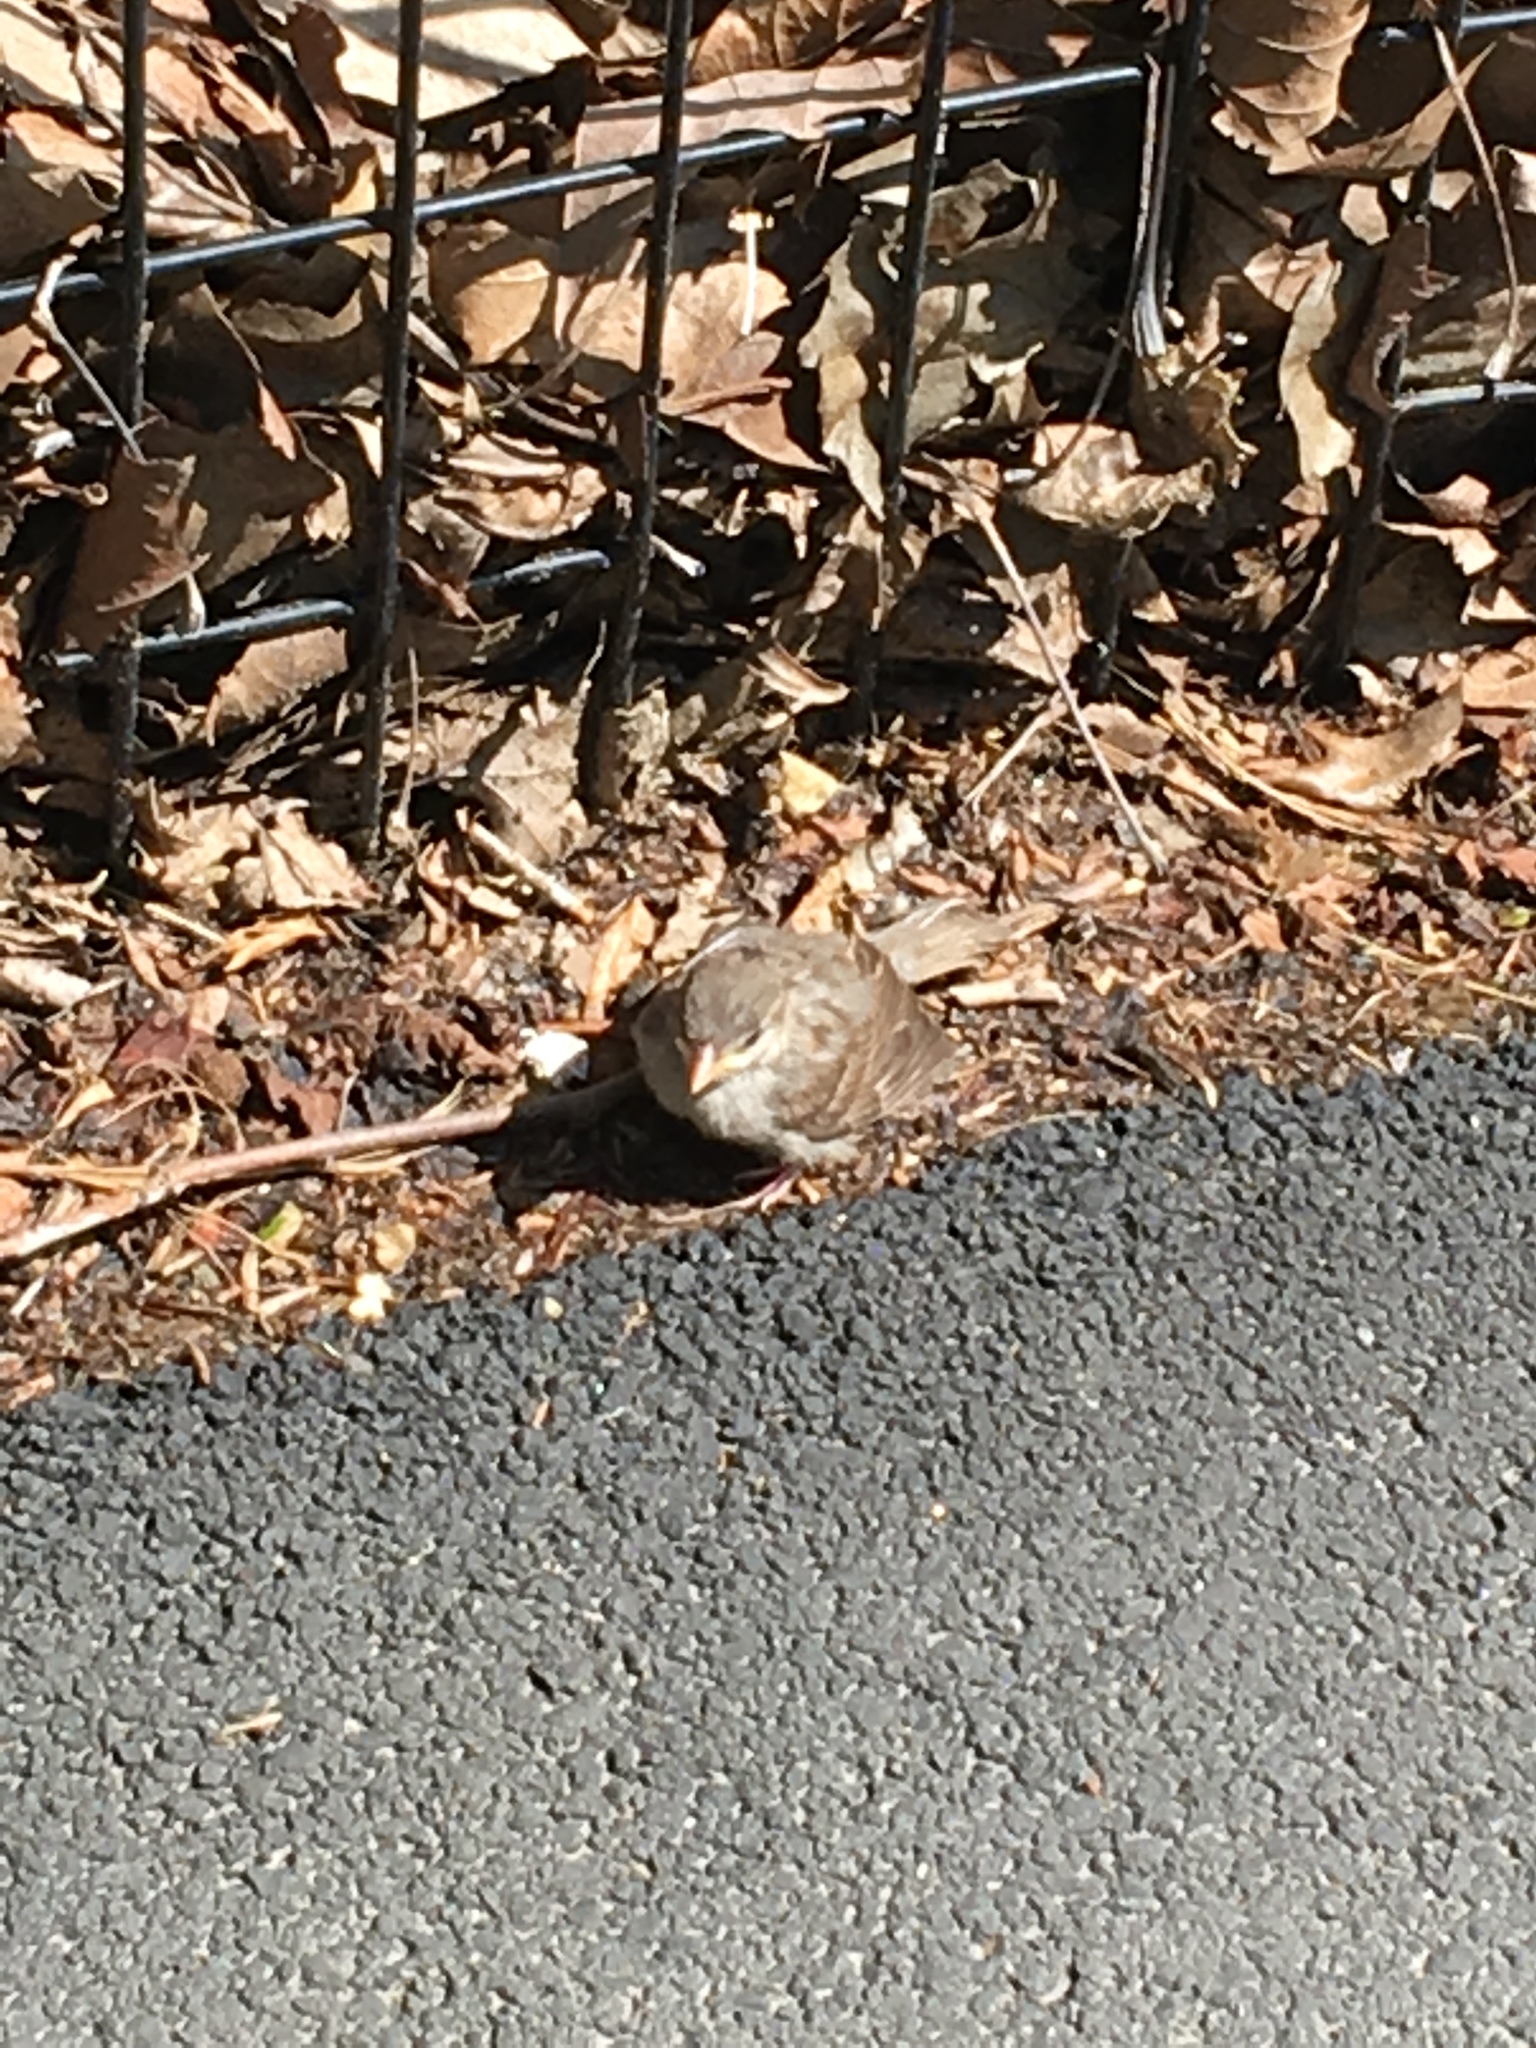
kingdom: Animalia
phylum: Chordata
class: Aves
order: Passeriformes
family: Passeridae
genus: Passer
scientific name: Passer domesticus
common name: House sparrow
